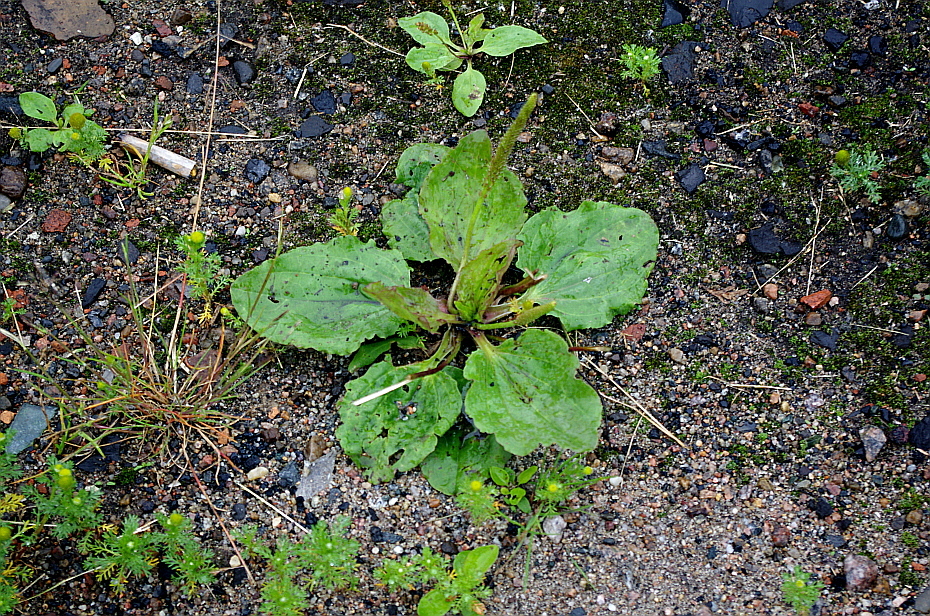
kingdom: Plantae
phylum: Tracheophyta
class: Magnoliopsida
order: Lamiales
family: Plantaginaceae
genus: Plantago
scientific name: Plantago major
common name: Common plantain
